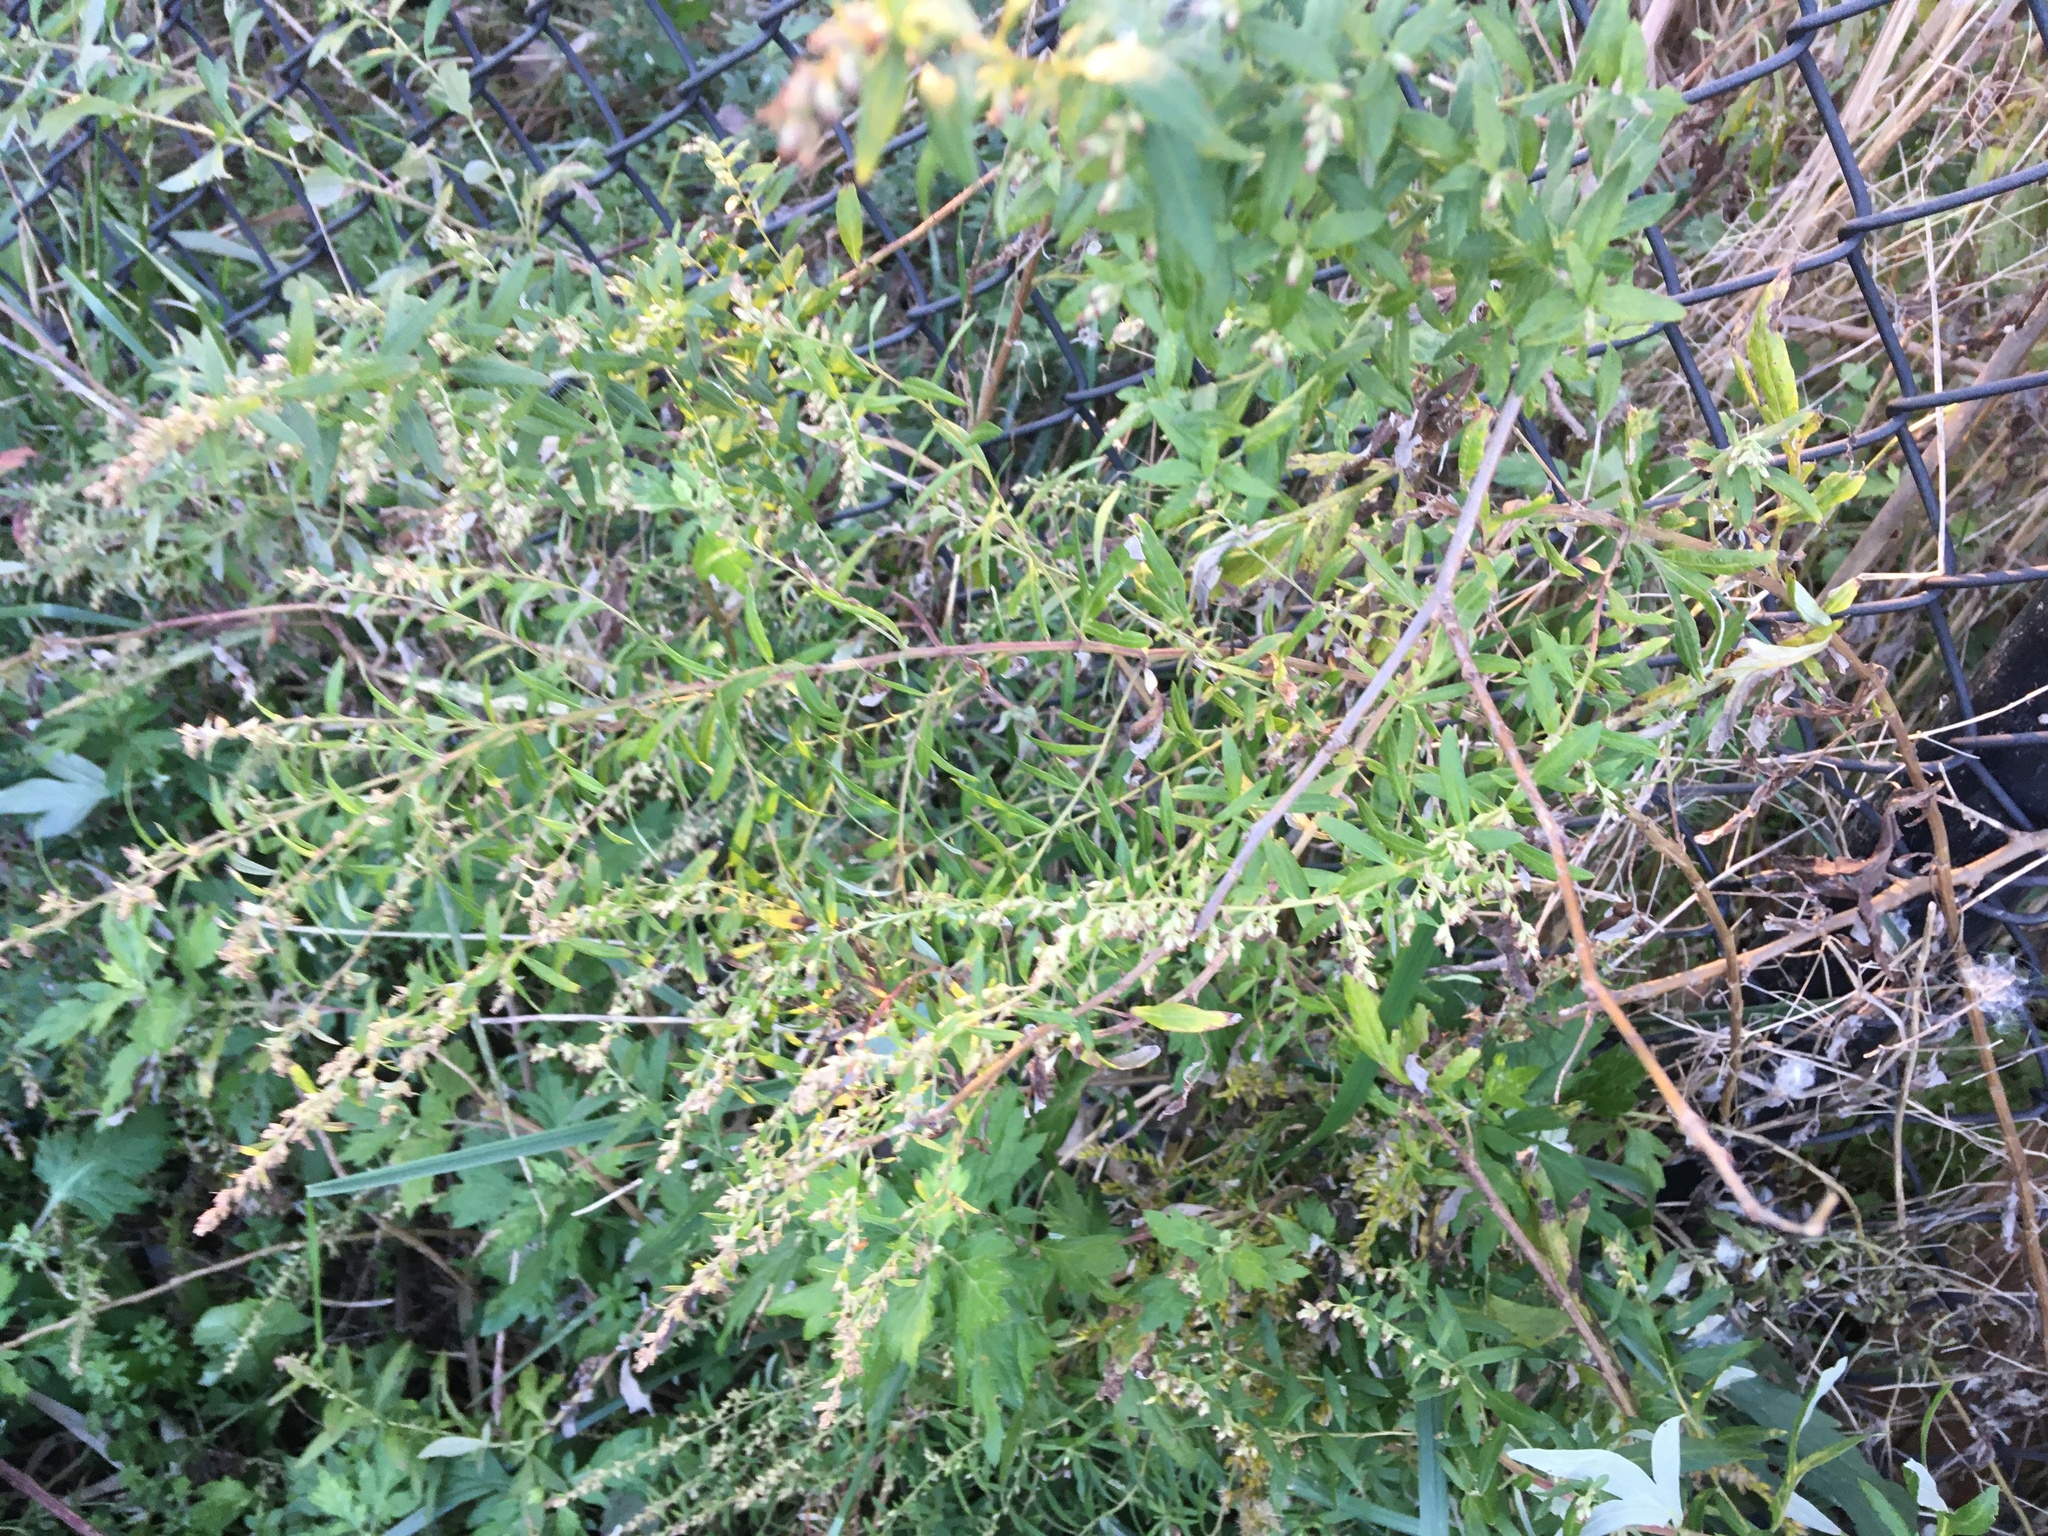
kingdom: Plantae
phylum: Tracheophyta
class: Magnoliopsida
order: Asterales
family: Asteraceae
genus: Artemisia
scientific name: Artemisia vulgaris
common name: Mugwort
